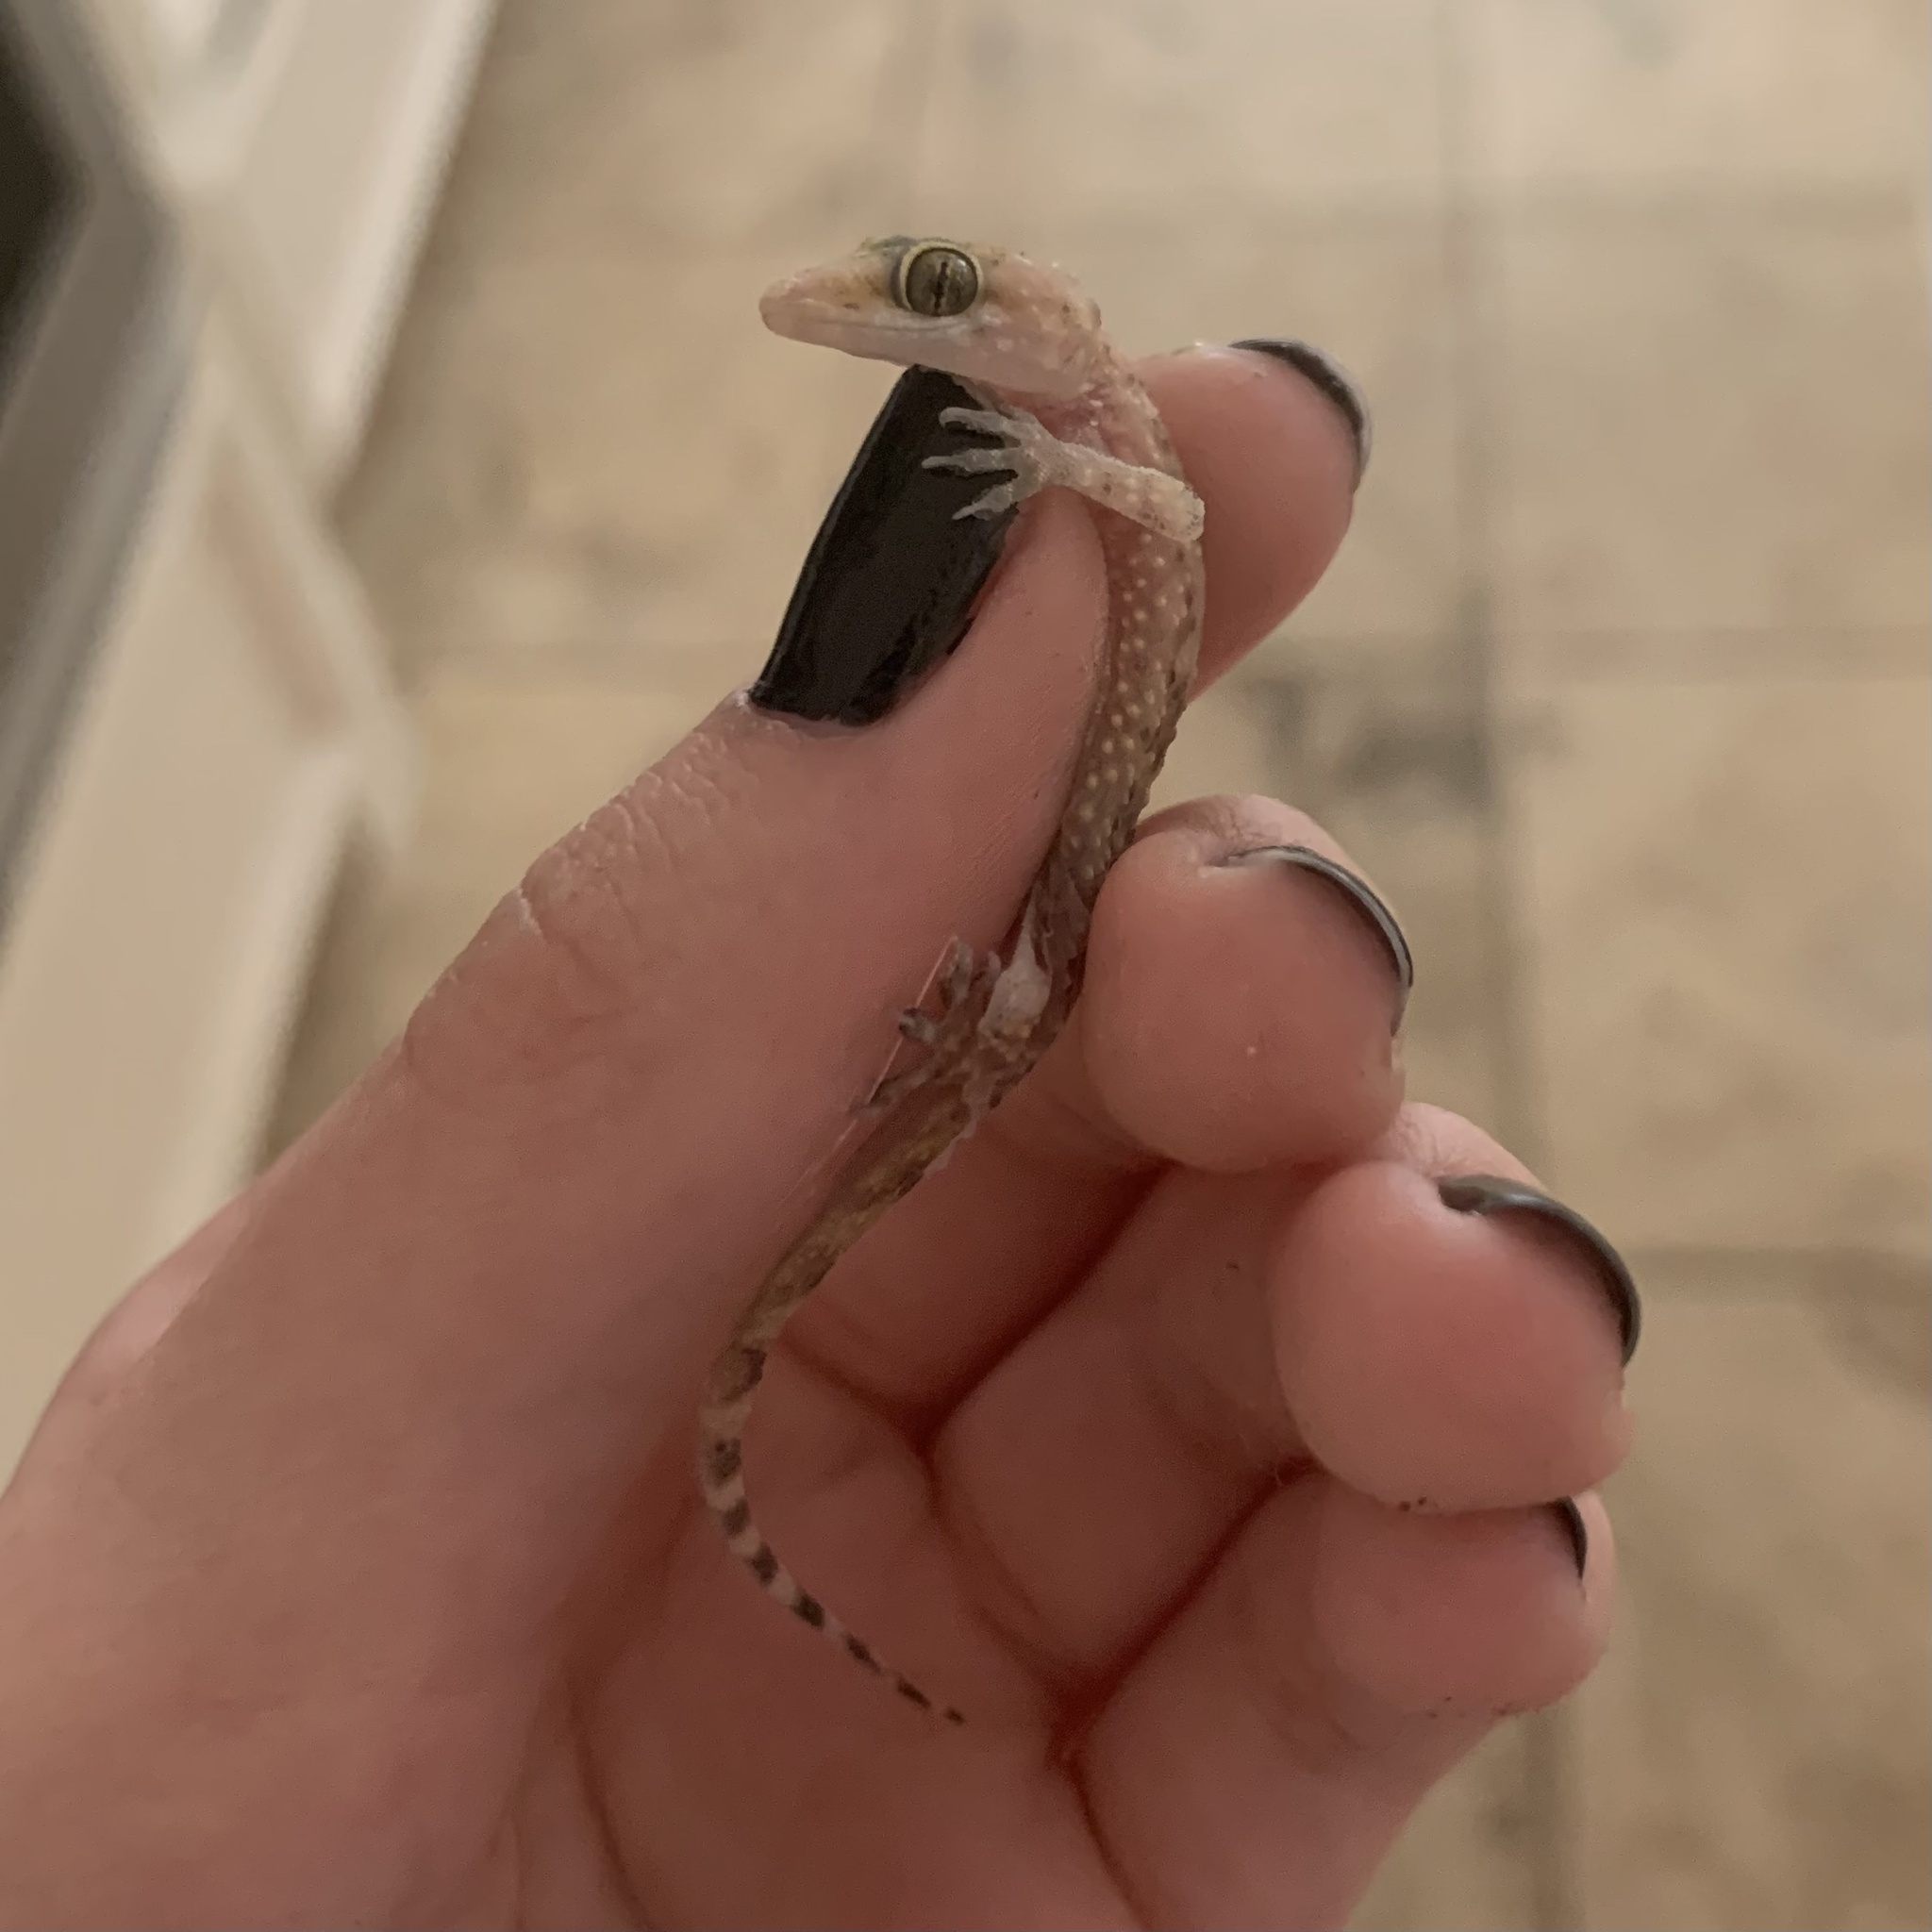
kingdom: Animalia
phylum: Chordata
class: Squamata
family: Gekkonidae
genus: Hemidactylus
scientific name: Hemidactylus turcicus
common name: Turkish gecko
